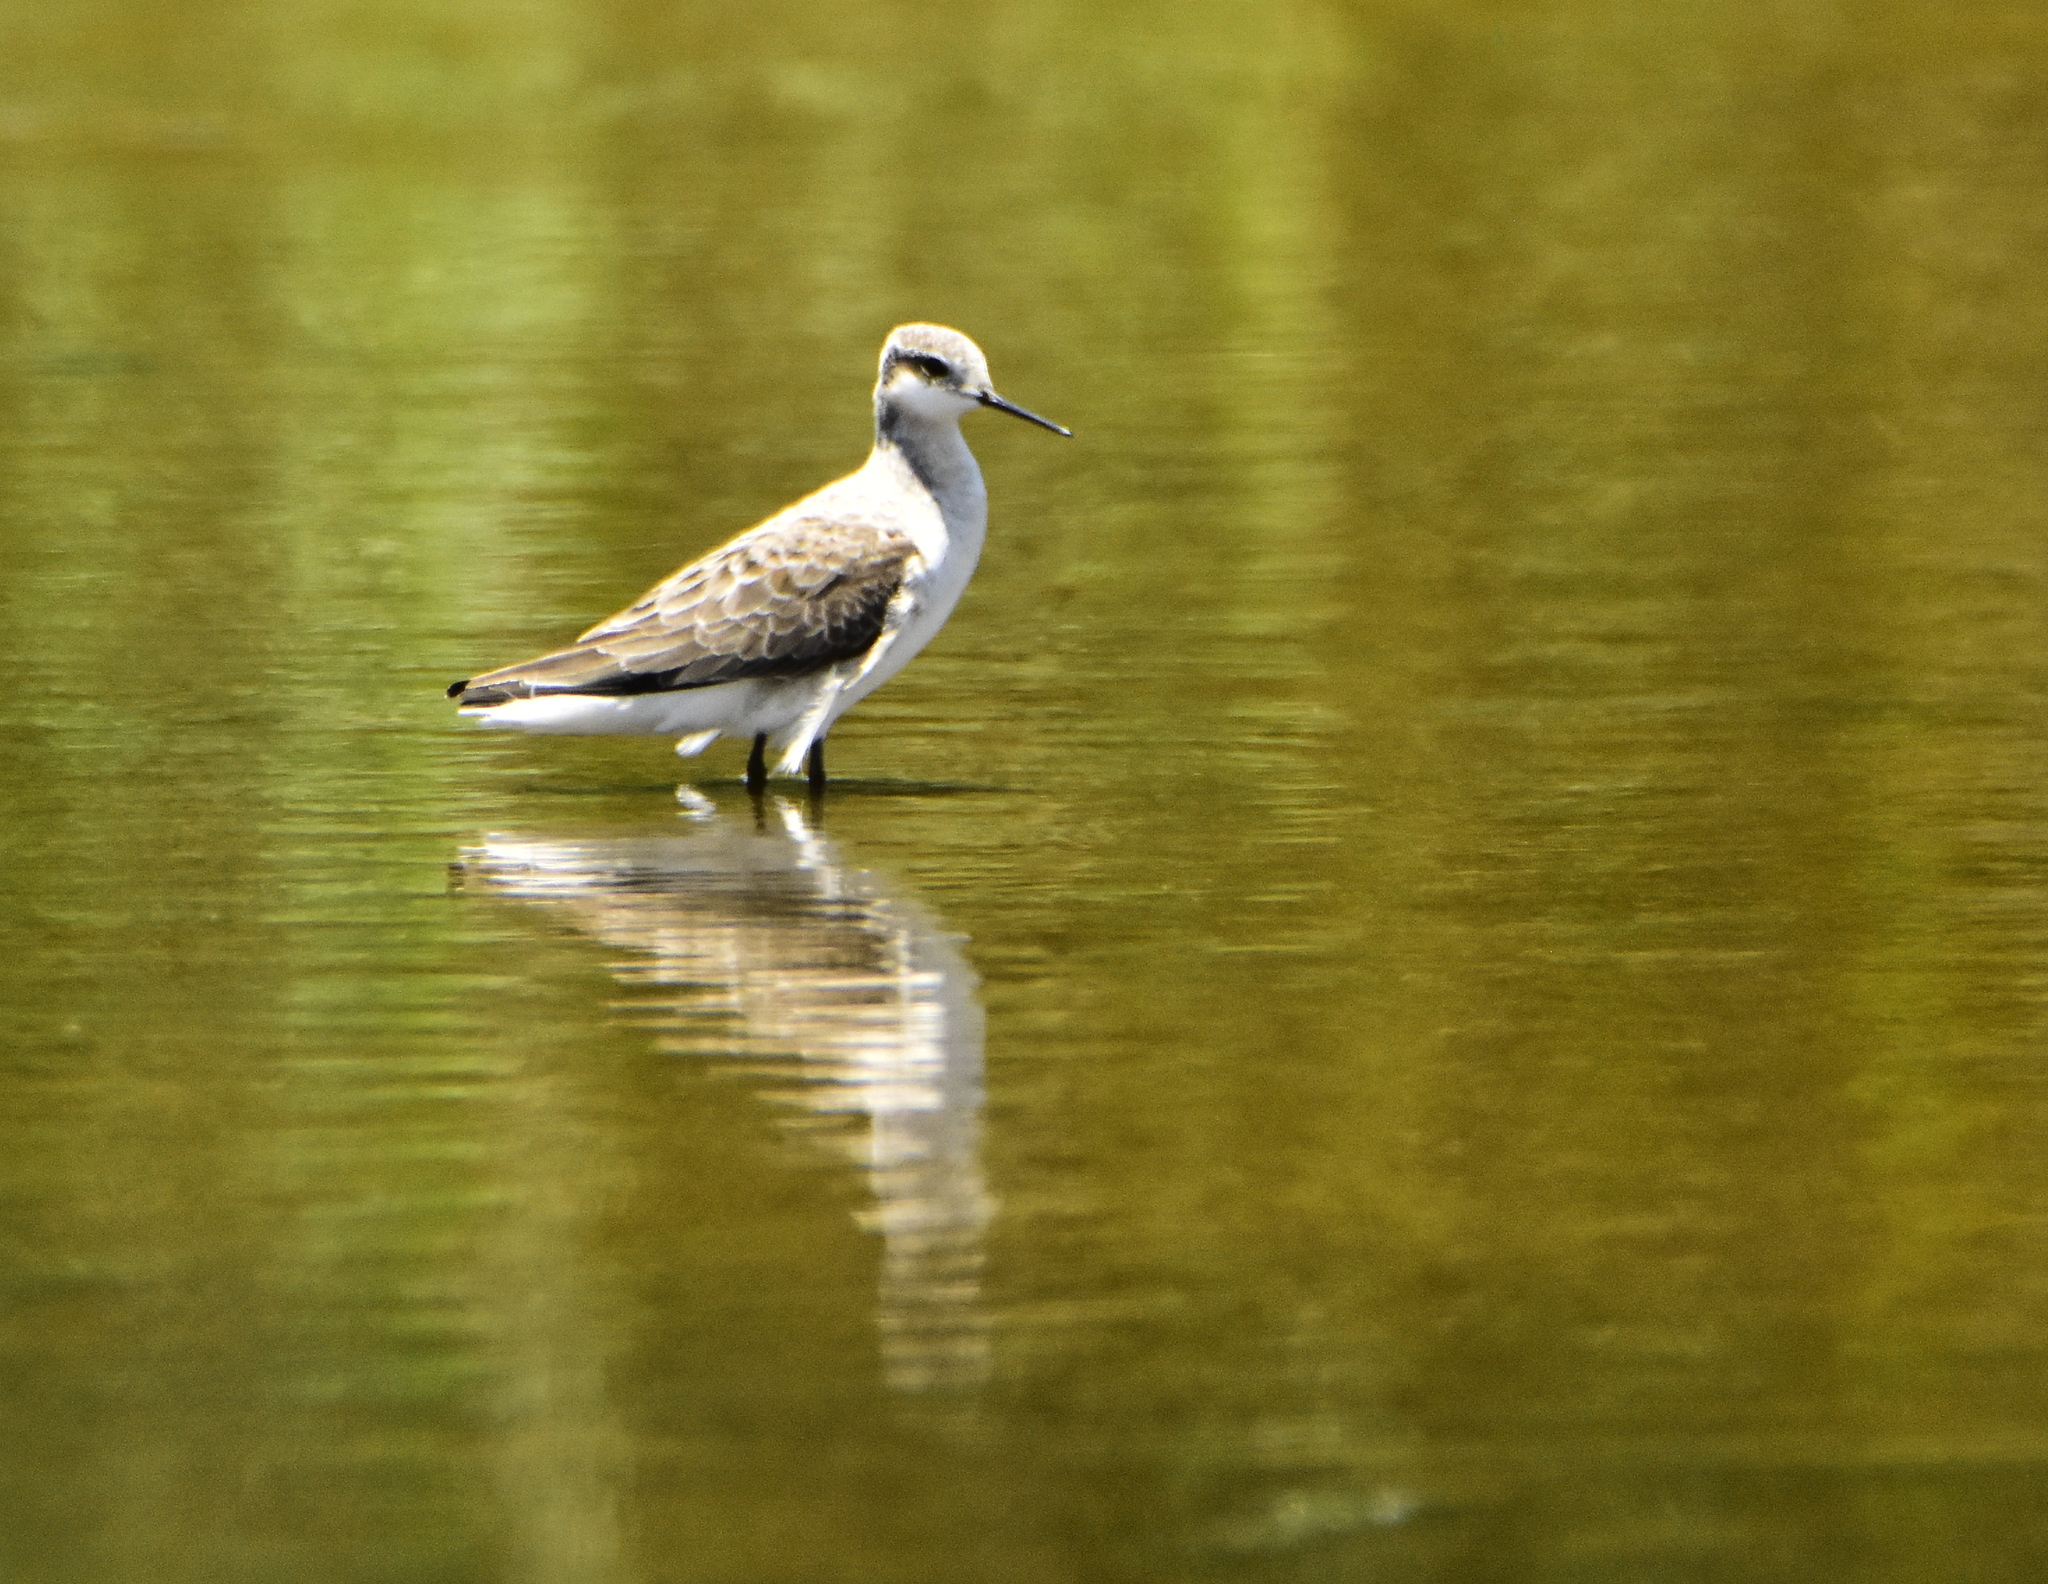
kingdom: Animalia
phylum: Chordata
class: Aves
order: Charadriiformes
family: Scolopacidae
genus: Phalaropus
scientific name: Phalaropus tricolor
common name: Wilson's phalarope
